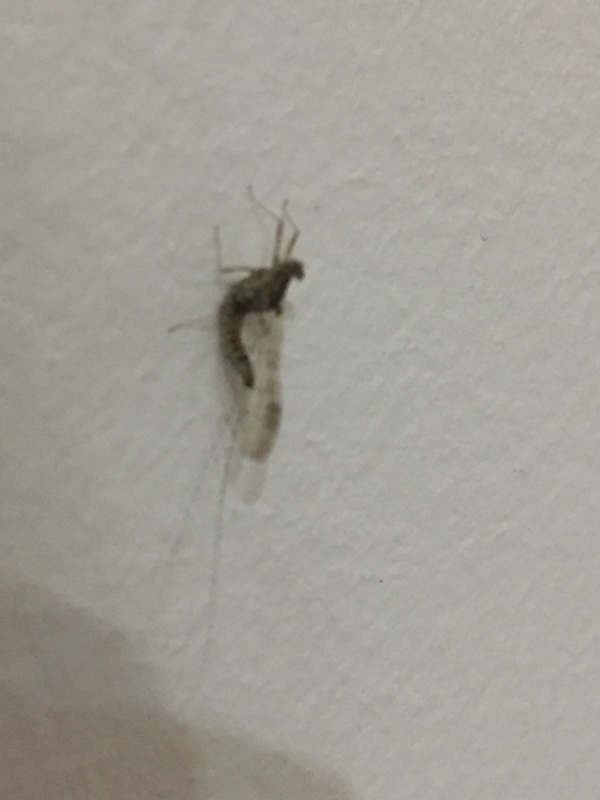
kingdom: Animalia
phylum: Arthropoda
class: Insecta
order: Ephemeroptera
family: Baetidae
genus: Cloeon
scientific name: Cloeon dipterum
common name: Pond olive
